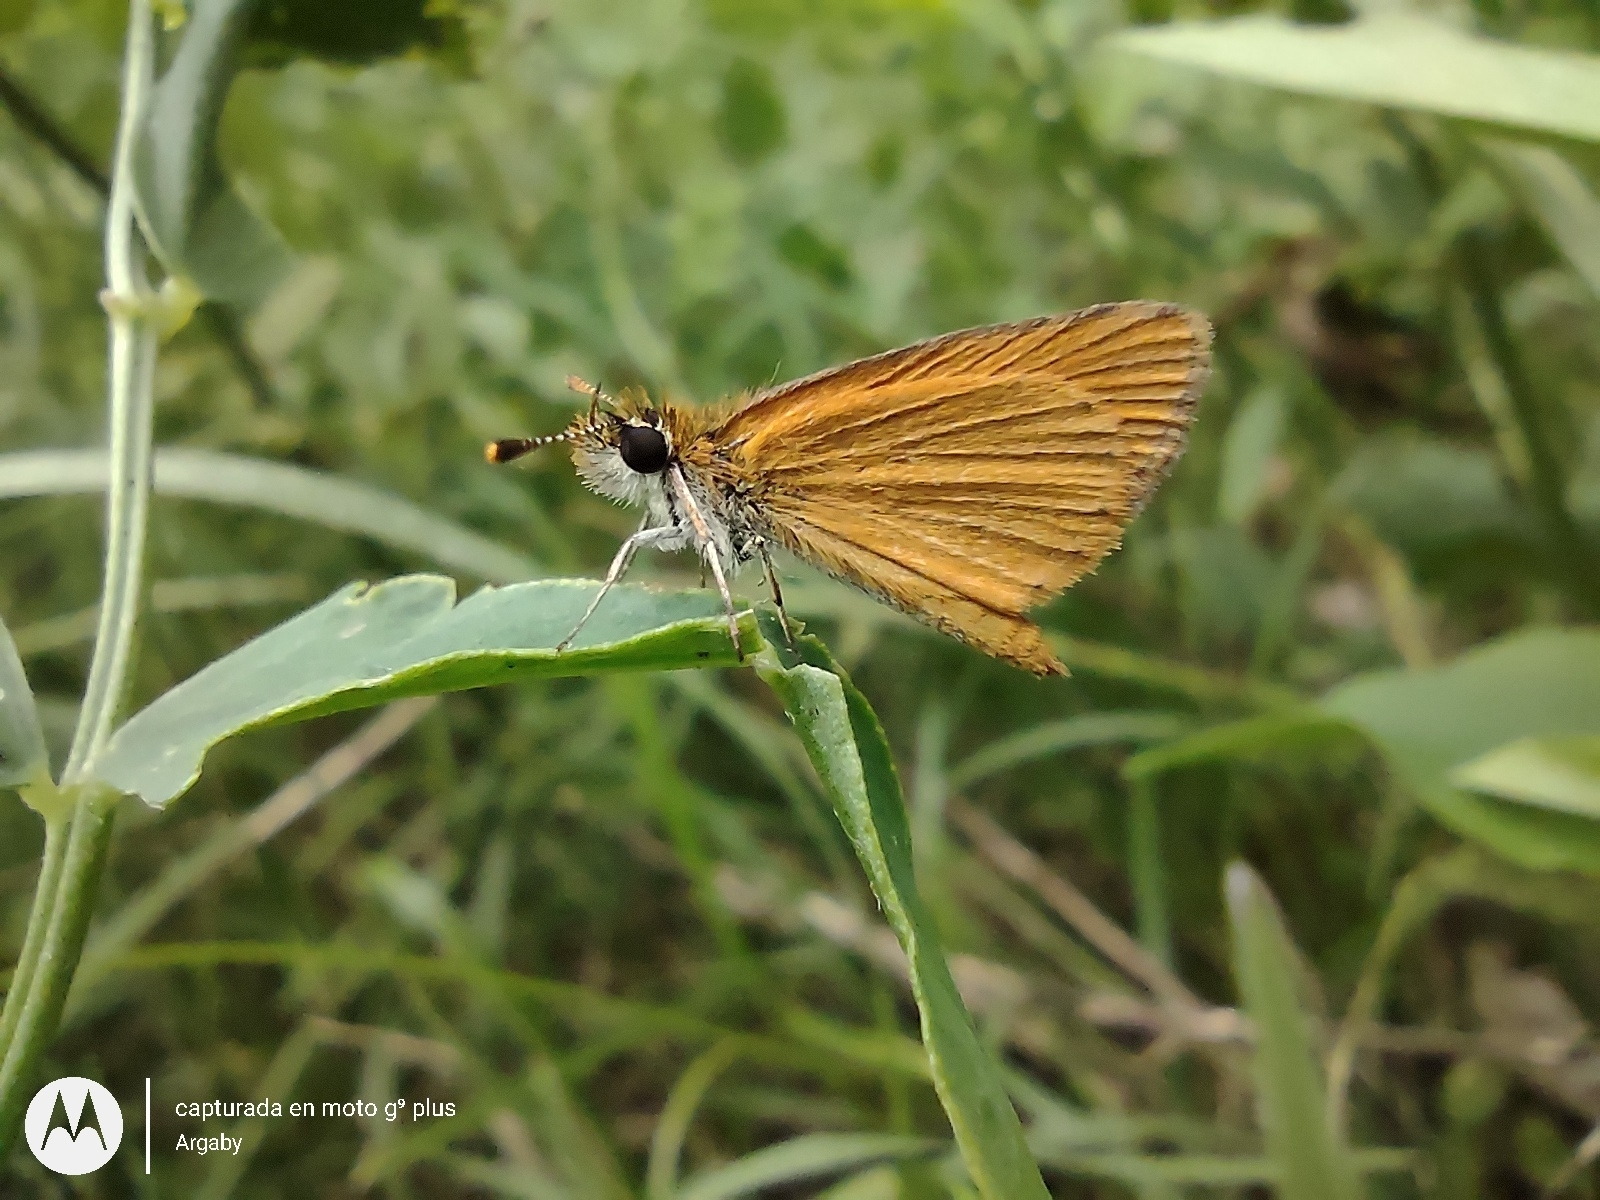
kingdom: Animalia
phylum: Arthropoda
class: Insecta
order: Lepidoptera
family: Hesperiidae
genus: Ancyloxypha
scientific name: Ancyloxypha nitedula
